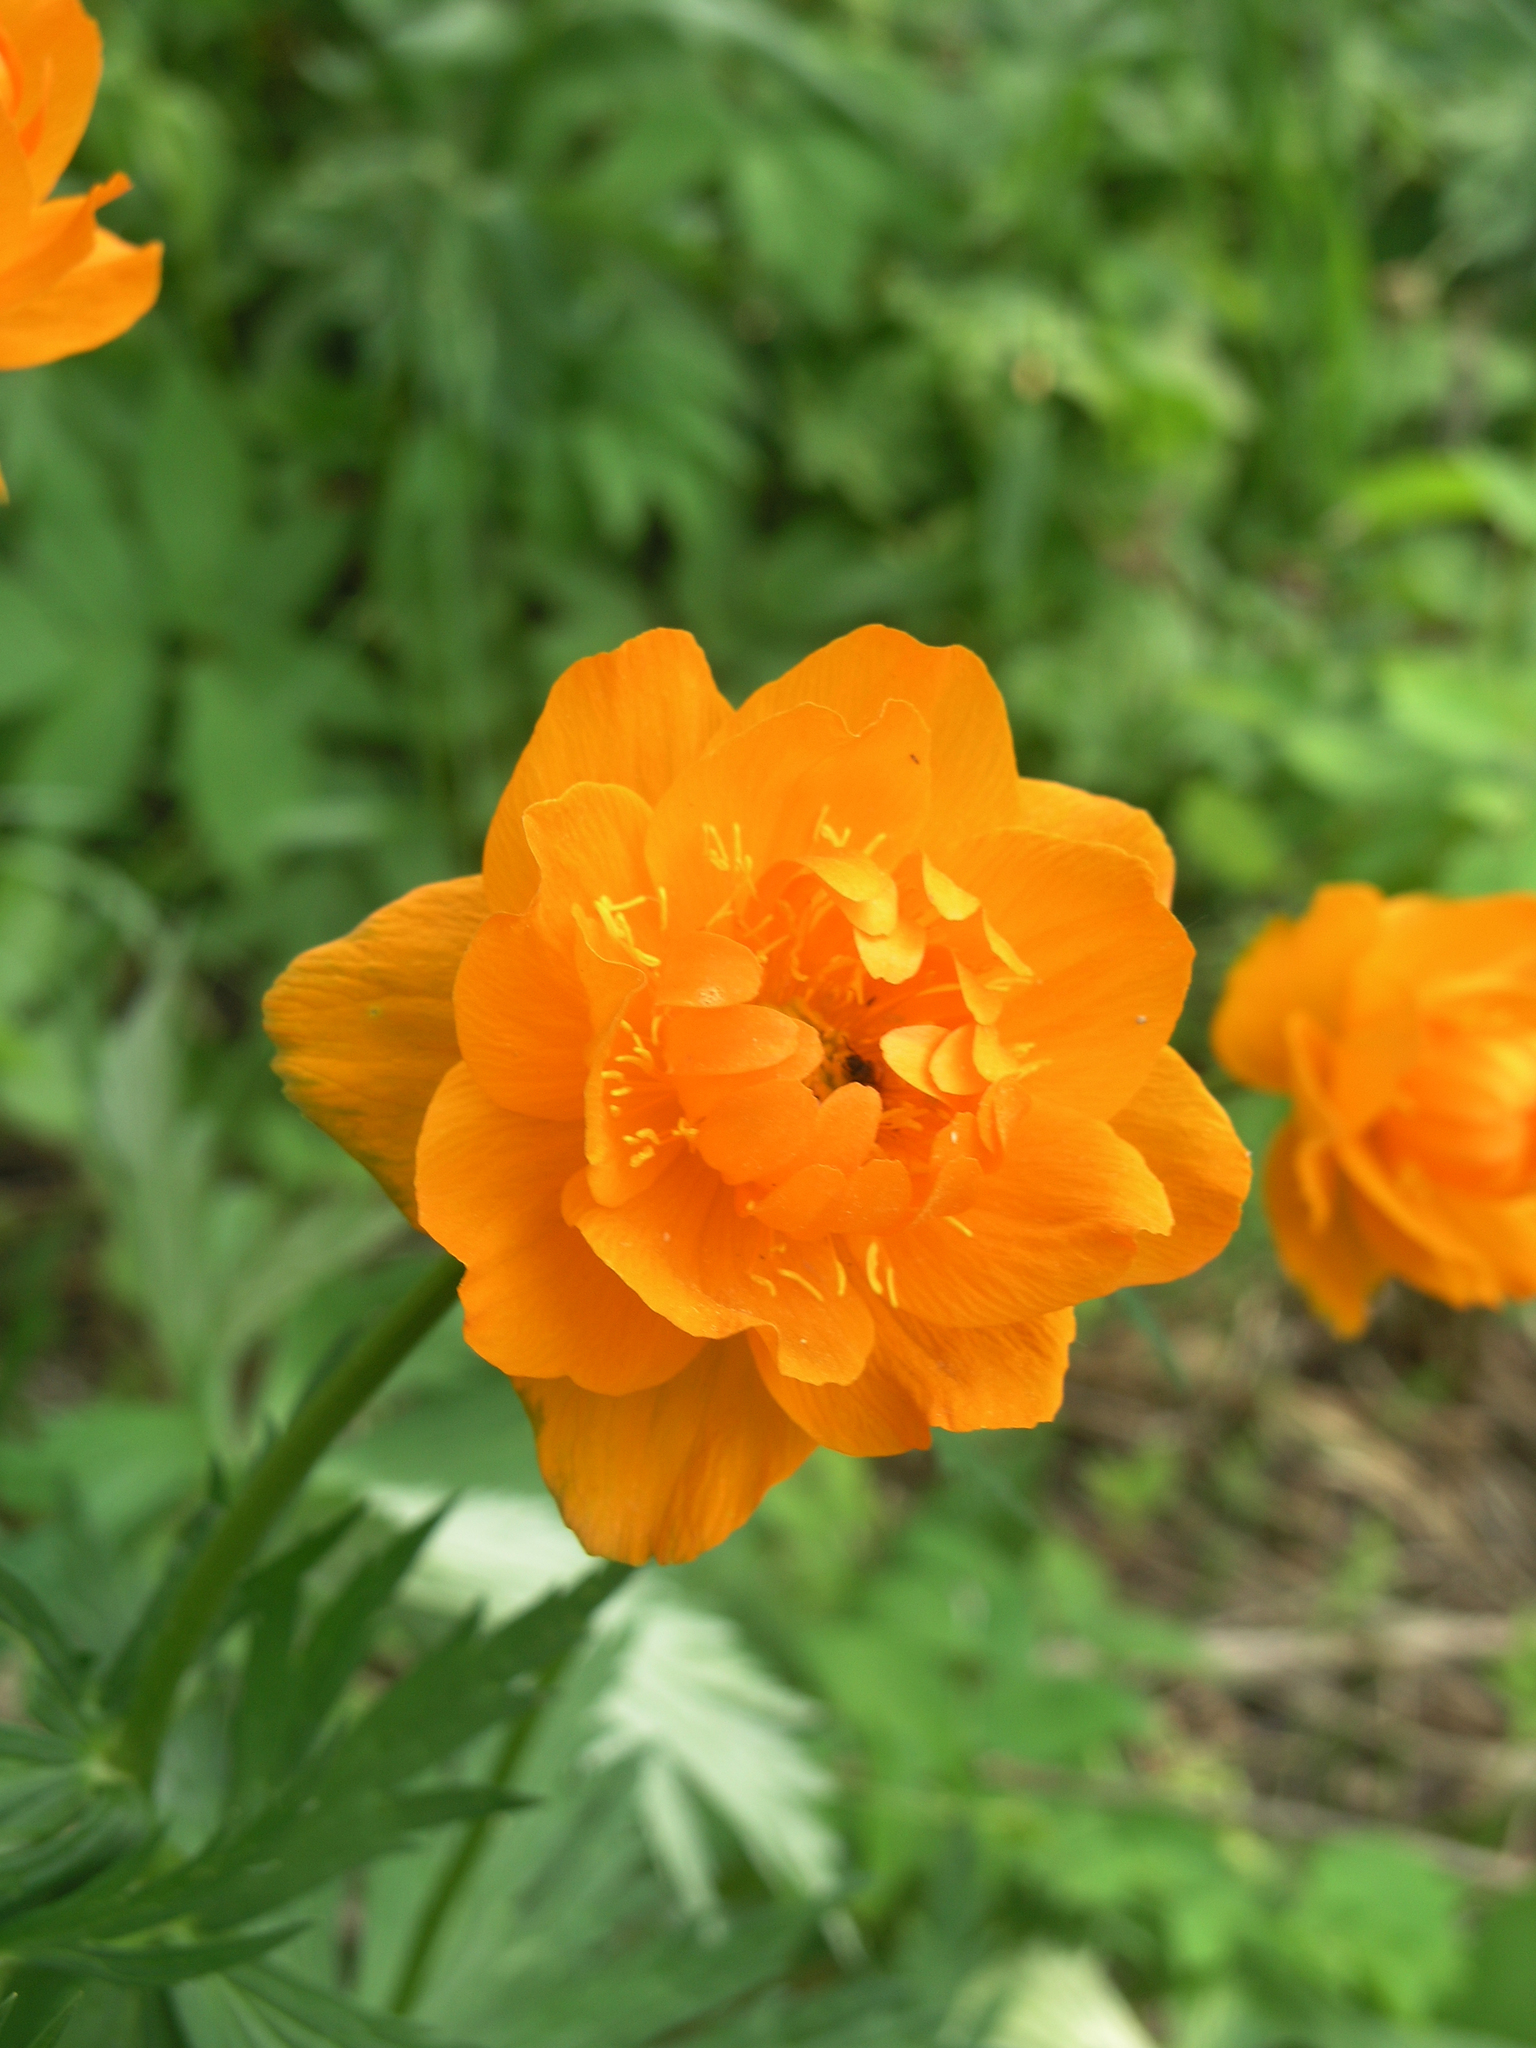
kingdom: Plantae
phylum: Tracheophyta
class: Magnoliopsida
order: Ranunculales
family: Ranunculaceae
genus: Trollius
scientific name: Trollius asiaticus
